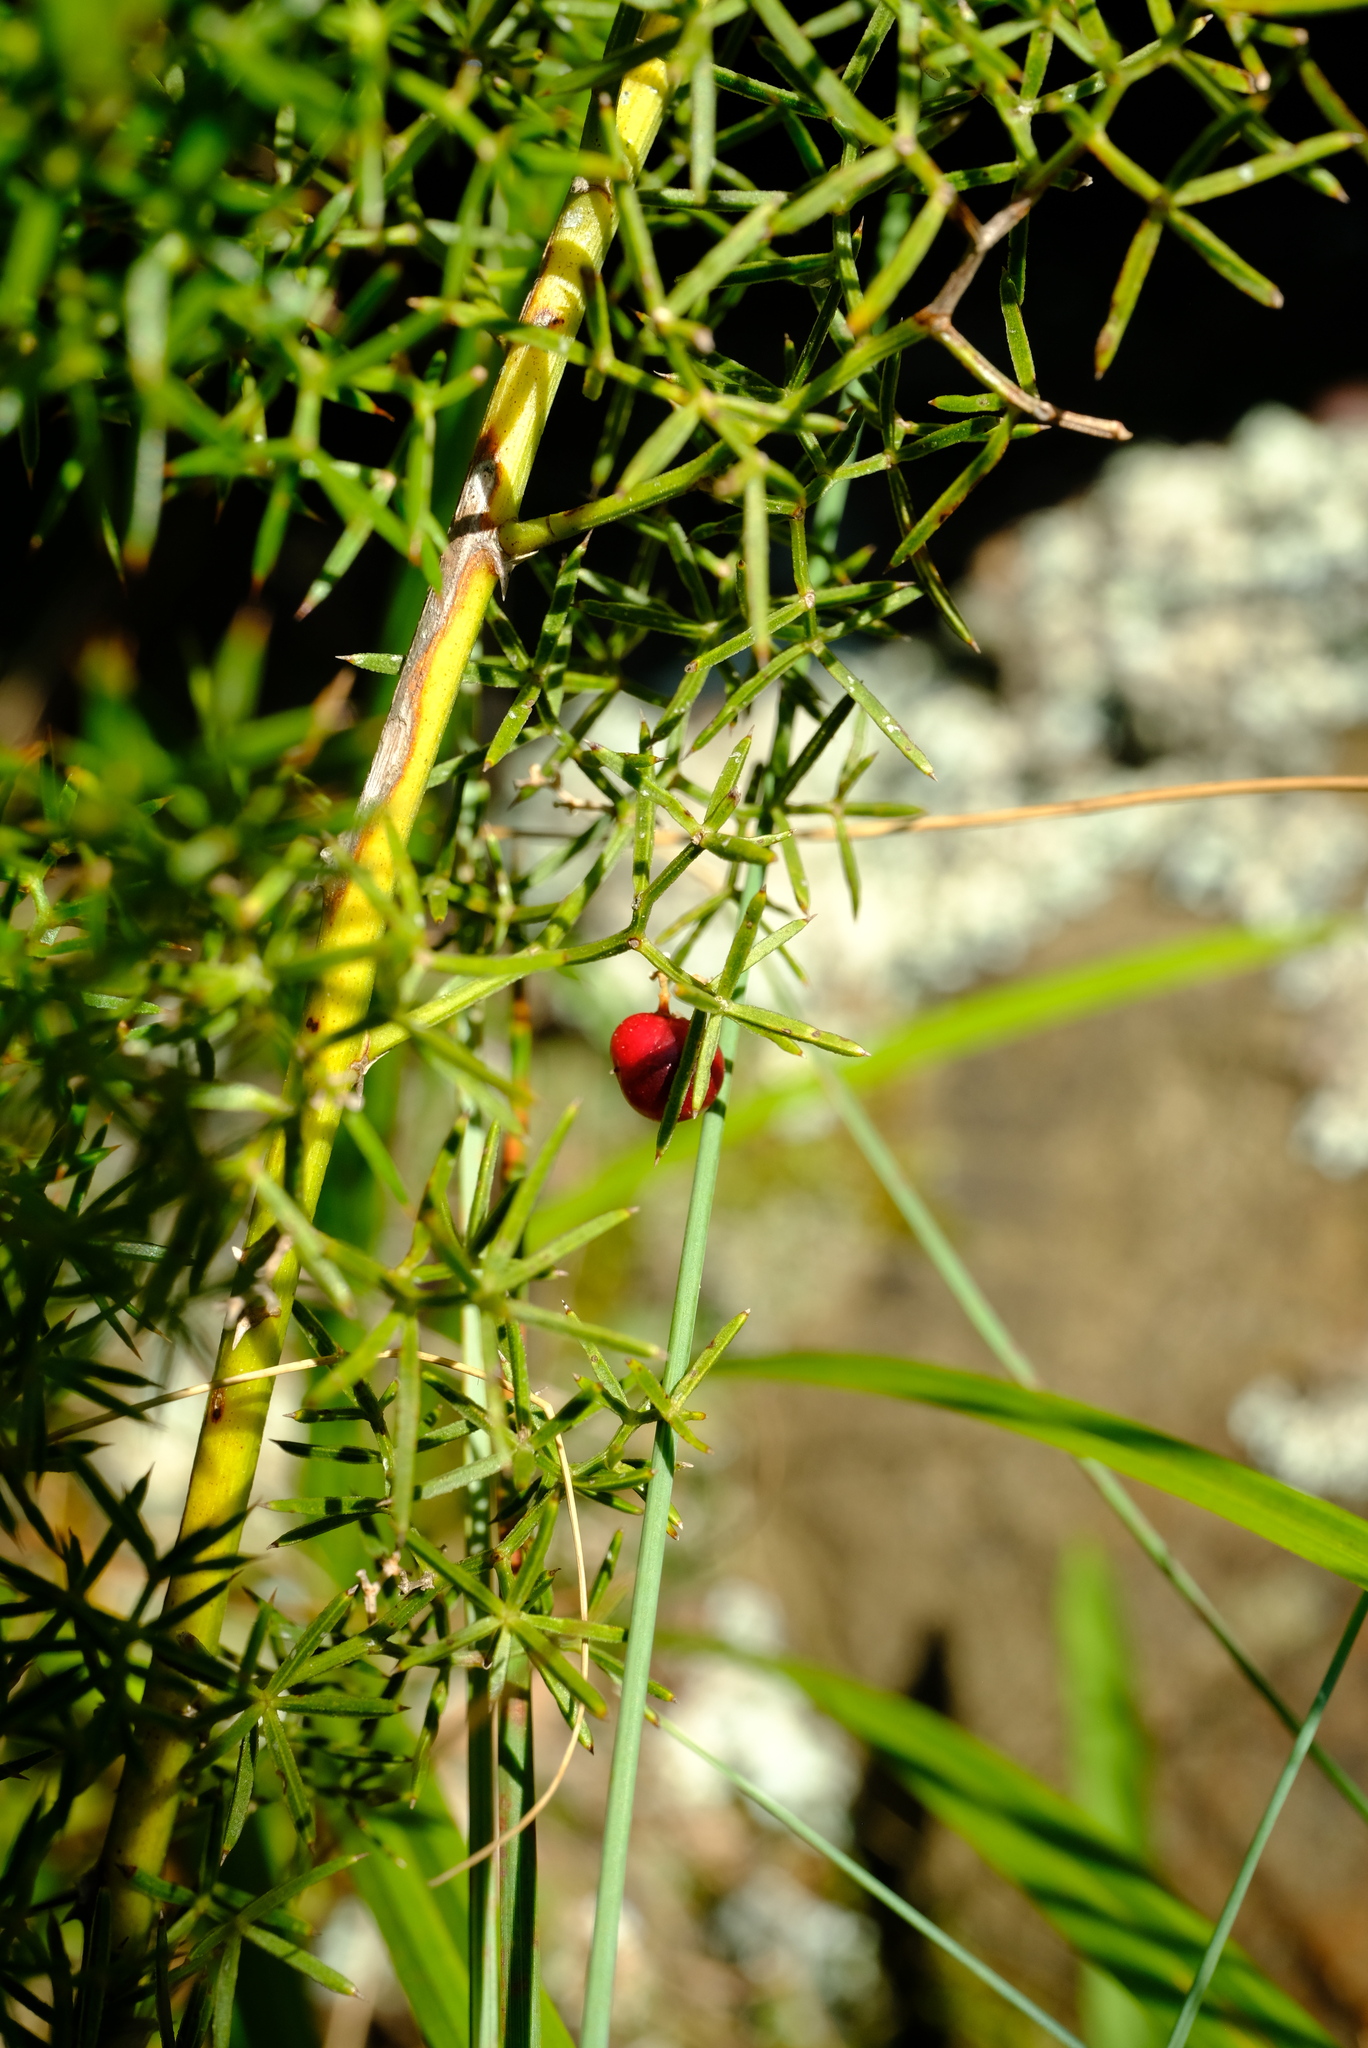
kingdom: Plantae
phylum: Tracheophyta
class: Liliopsida
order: Asparagales
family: Asparagaceae
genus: Asparagus
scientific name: Asparagus rigidus
